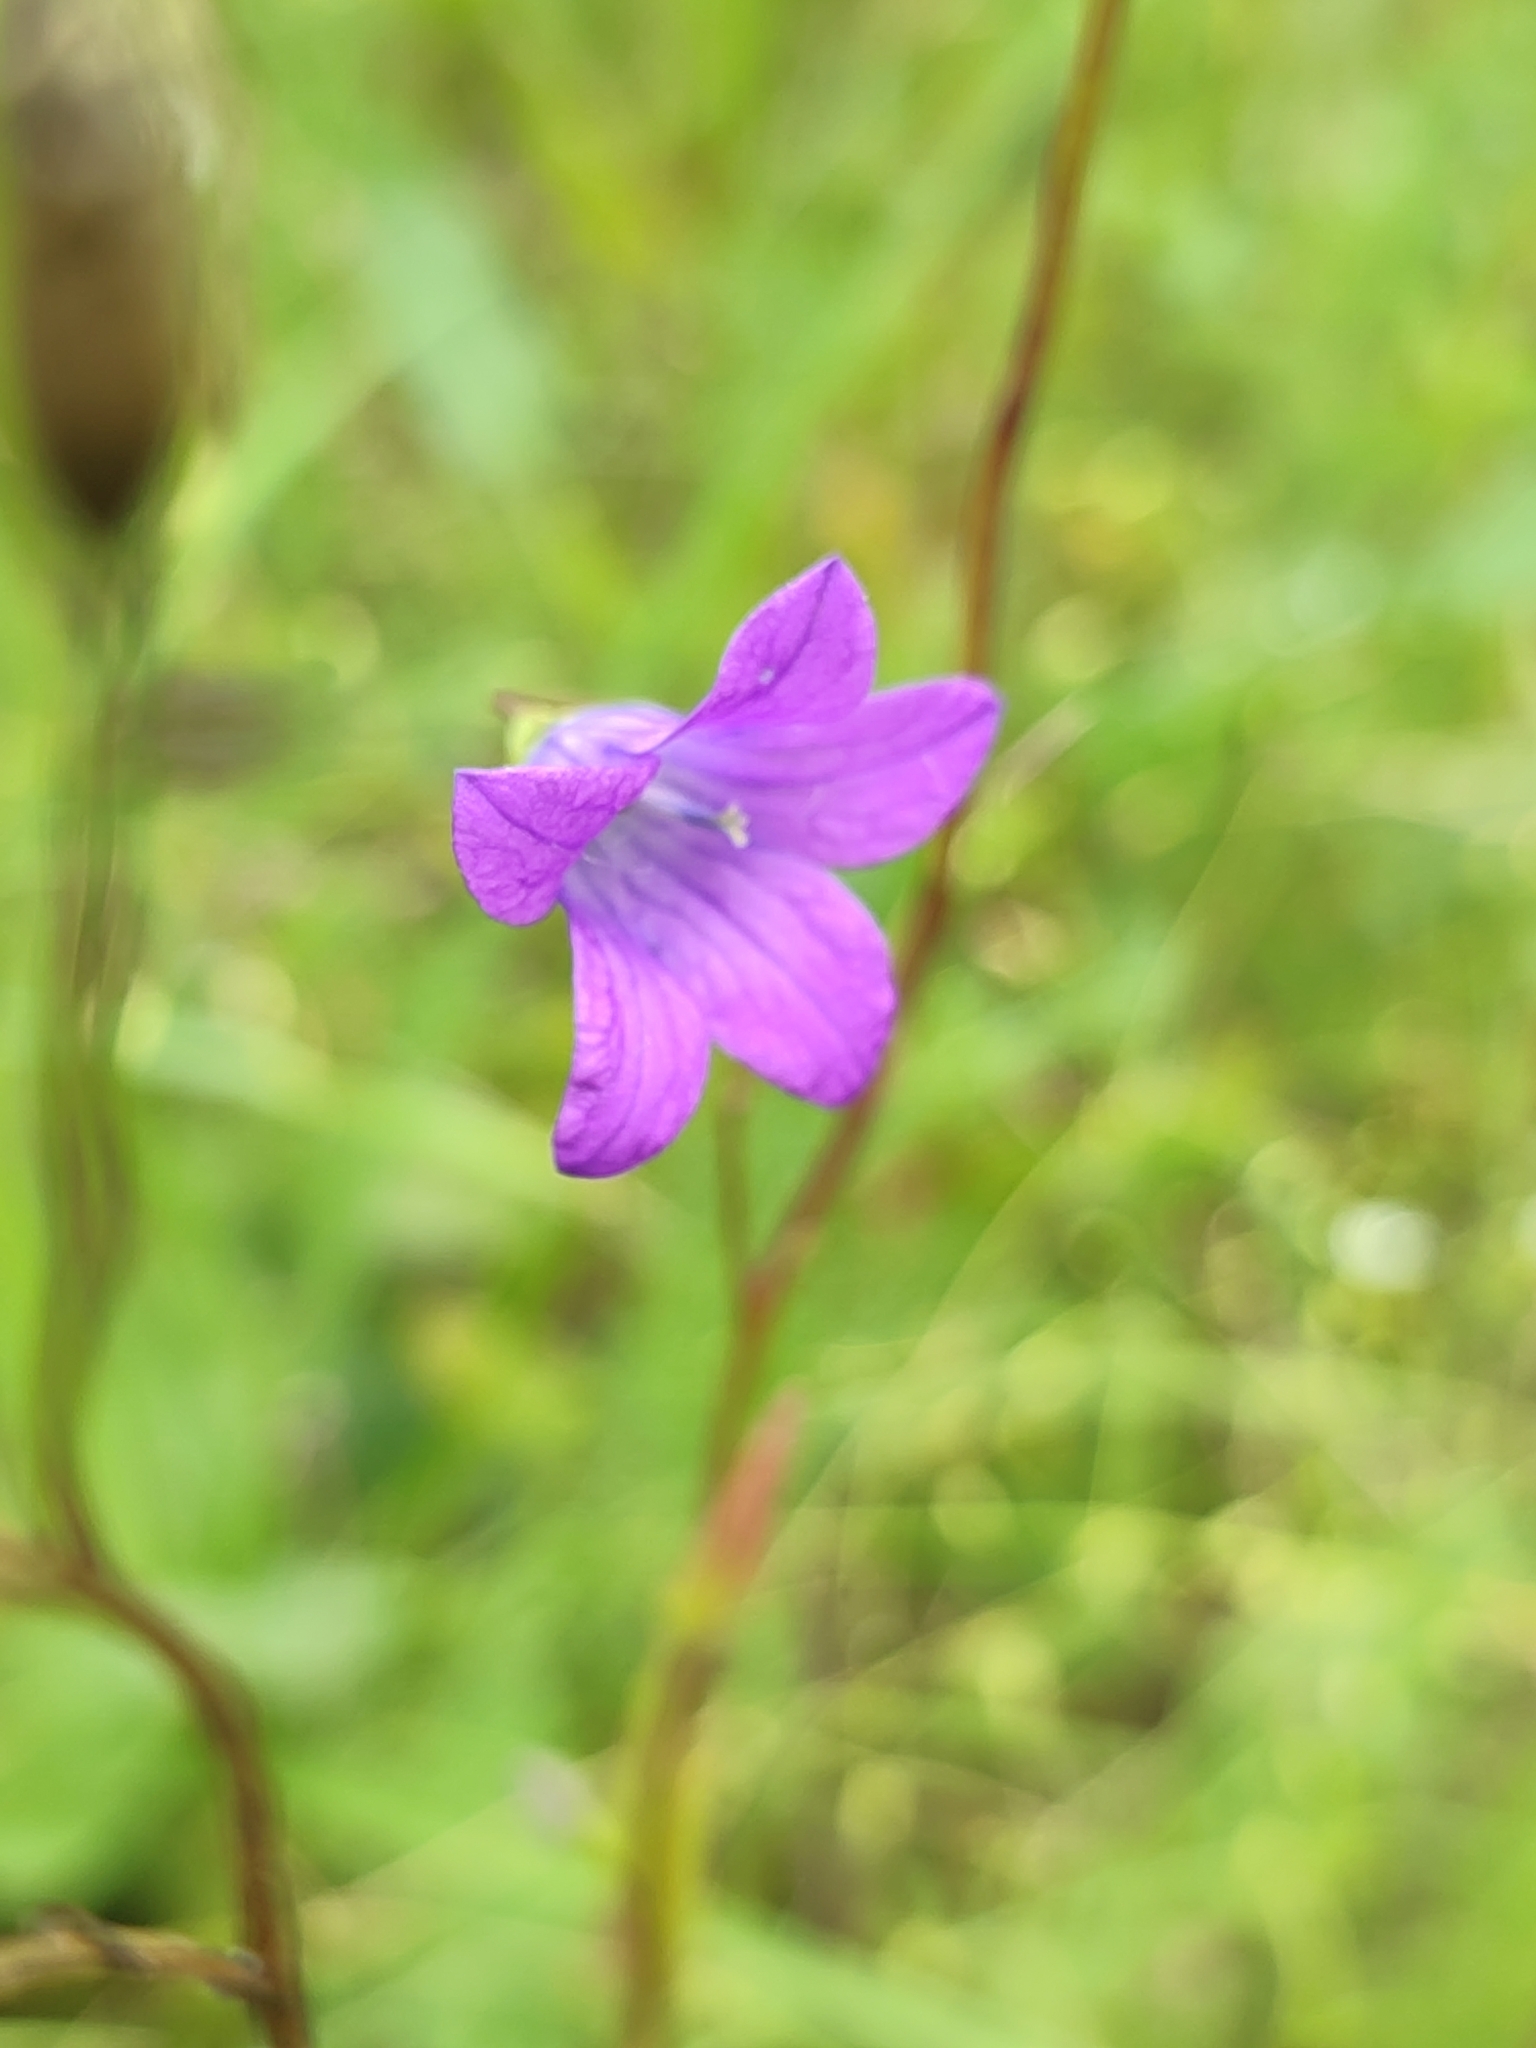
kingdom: Plantae
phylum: Tracheophyta
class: Magnoliopsida
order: Asterales
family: Campanulaceae
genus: Campanula
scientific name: Campanula patula
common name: Spreading bellflower
